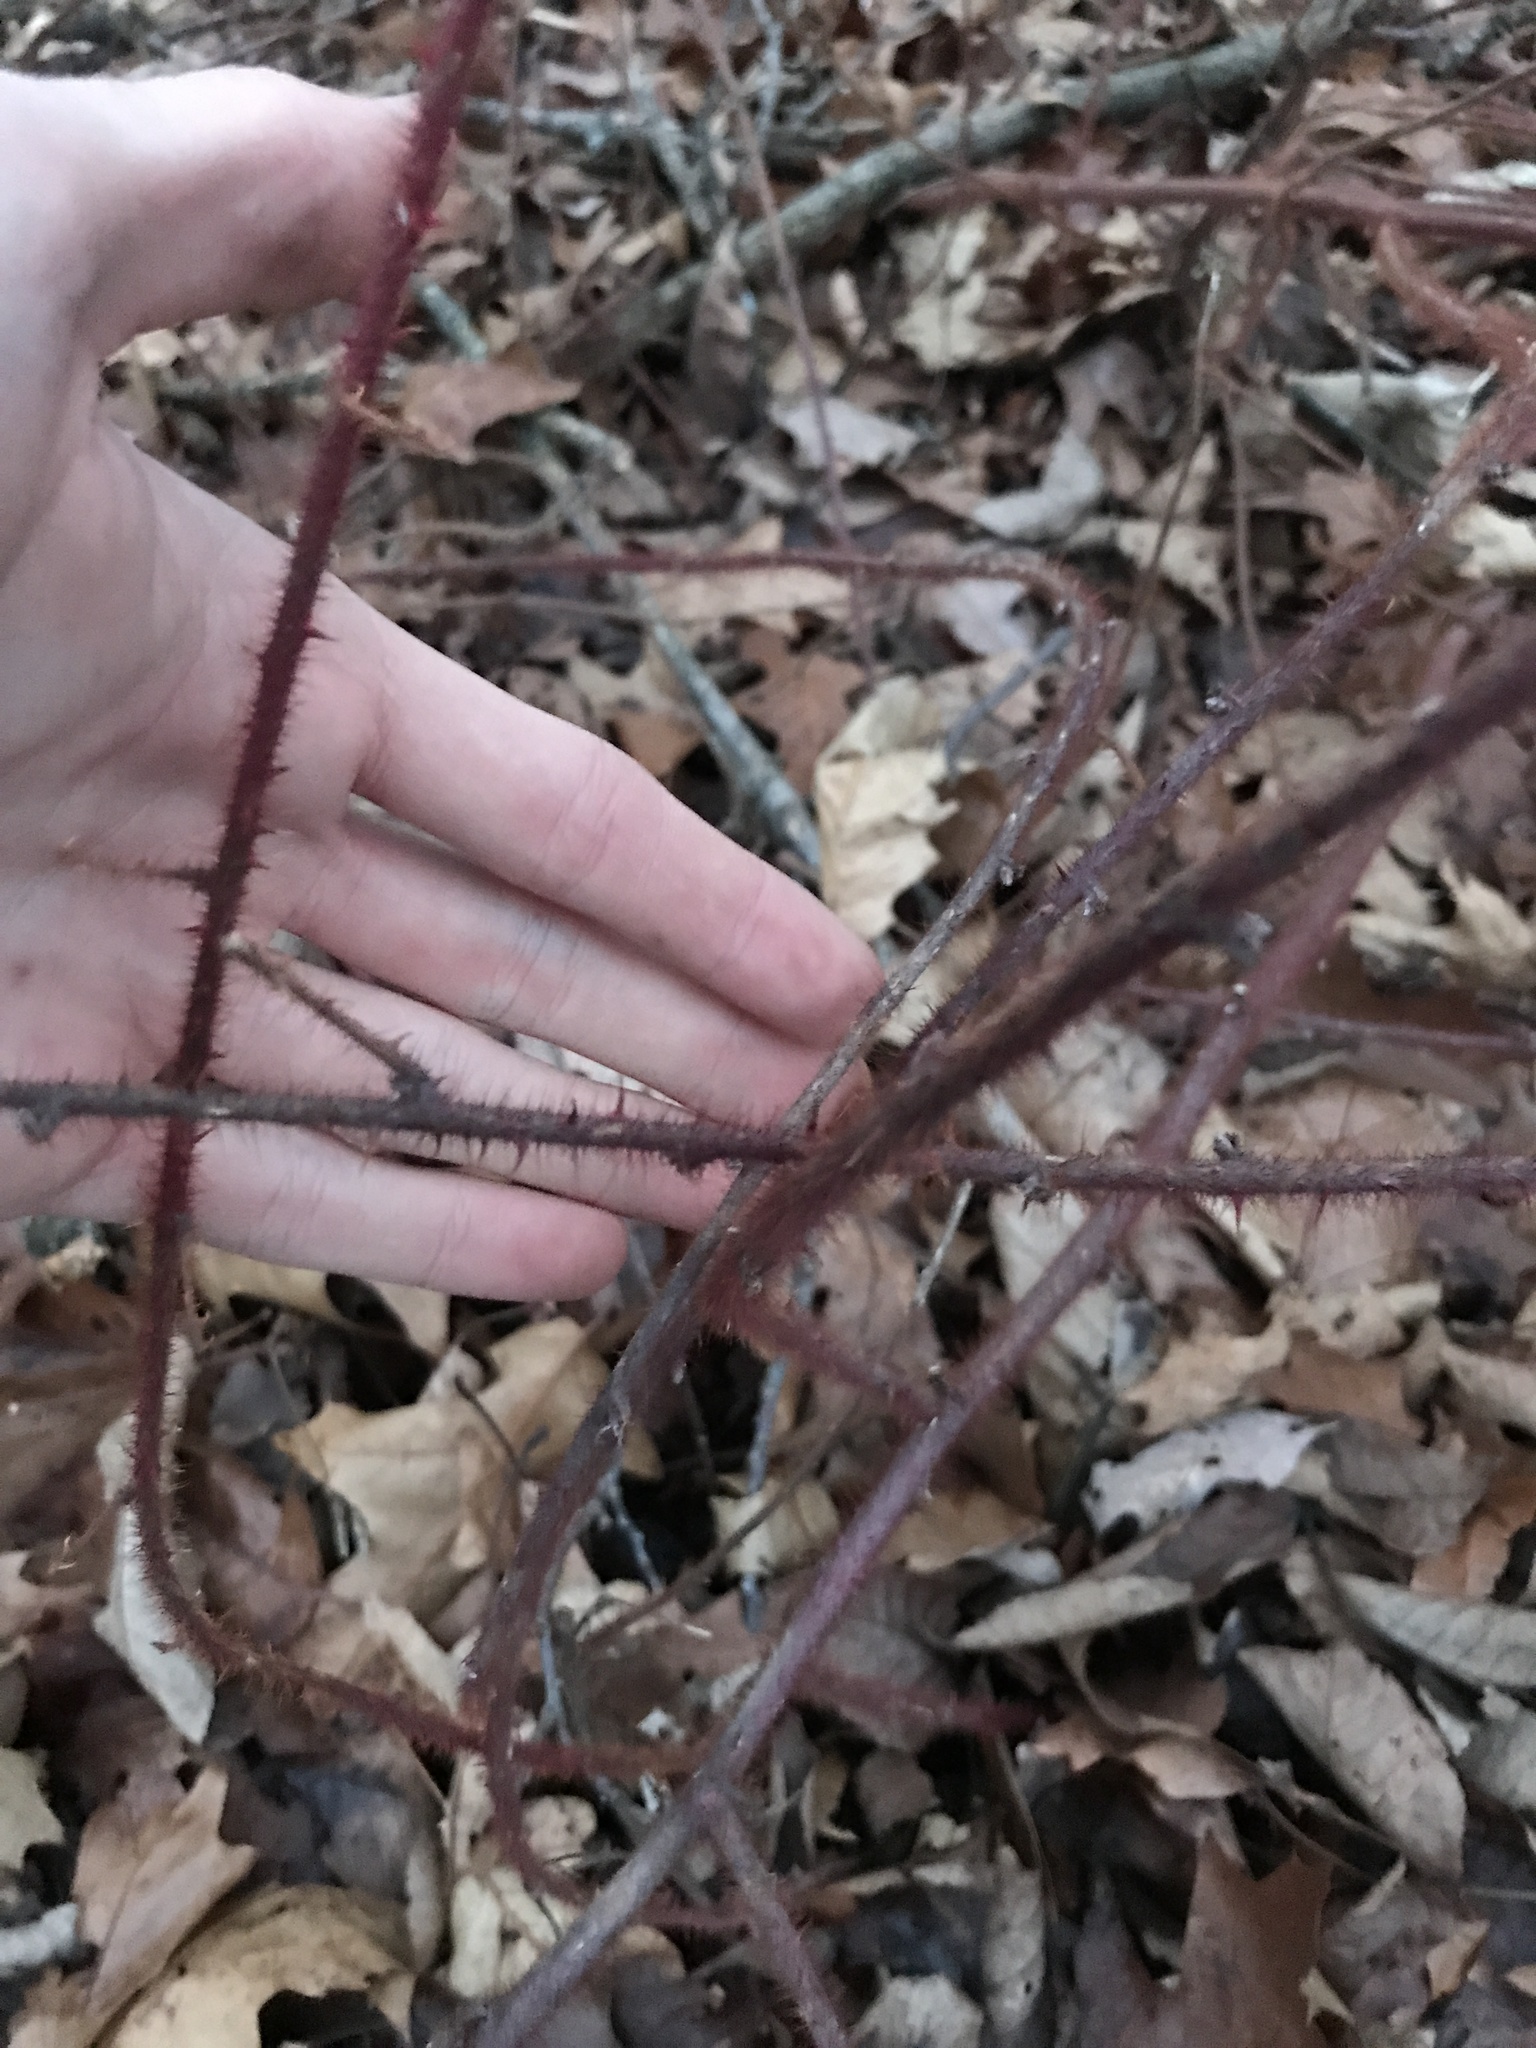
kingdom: Plantae
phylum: Tracheophyta
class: Magnoliopsida
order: Rosales
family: Rosaceae
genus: Rubus
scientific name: Rubus phoenicolasius
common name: Japanese wineberry
